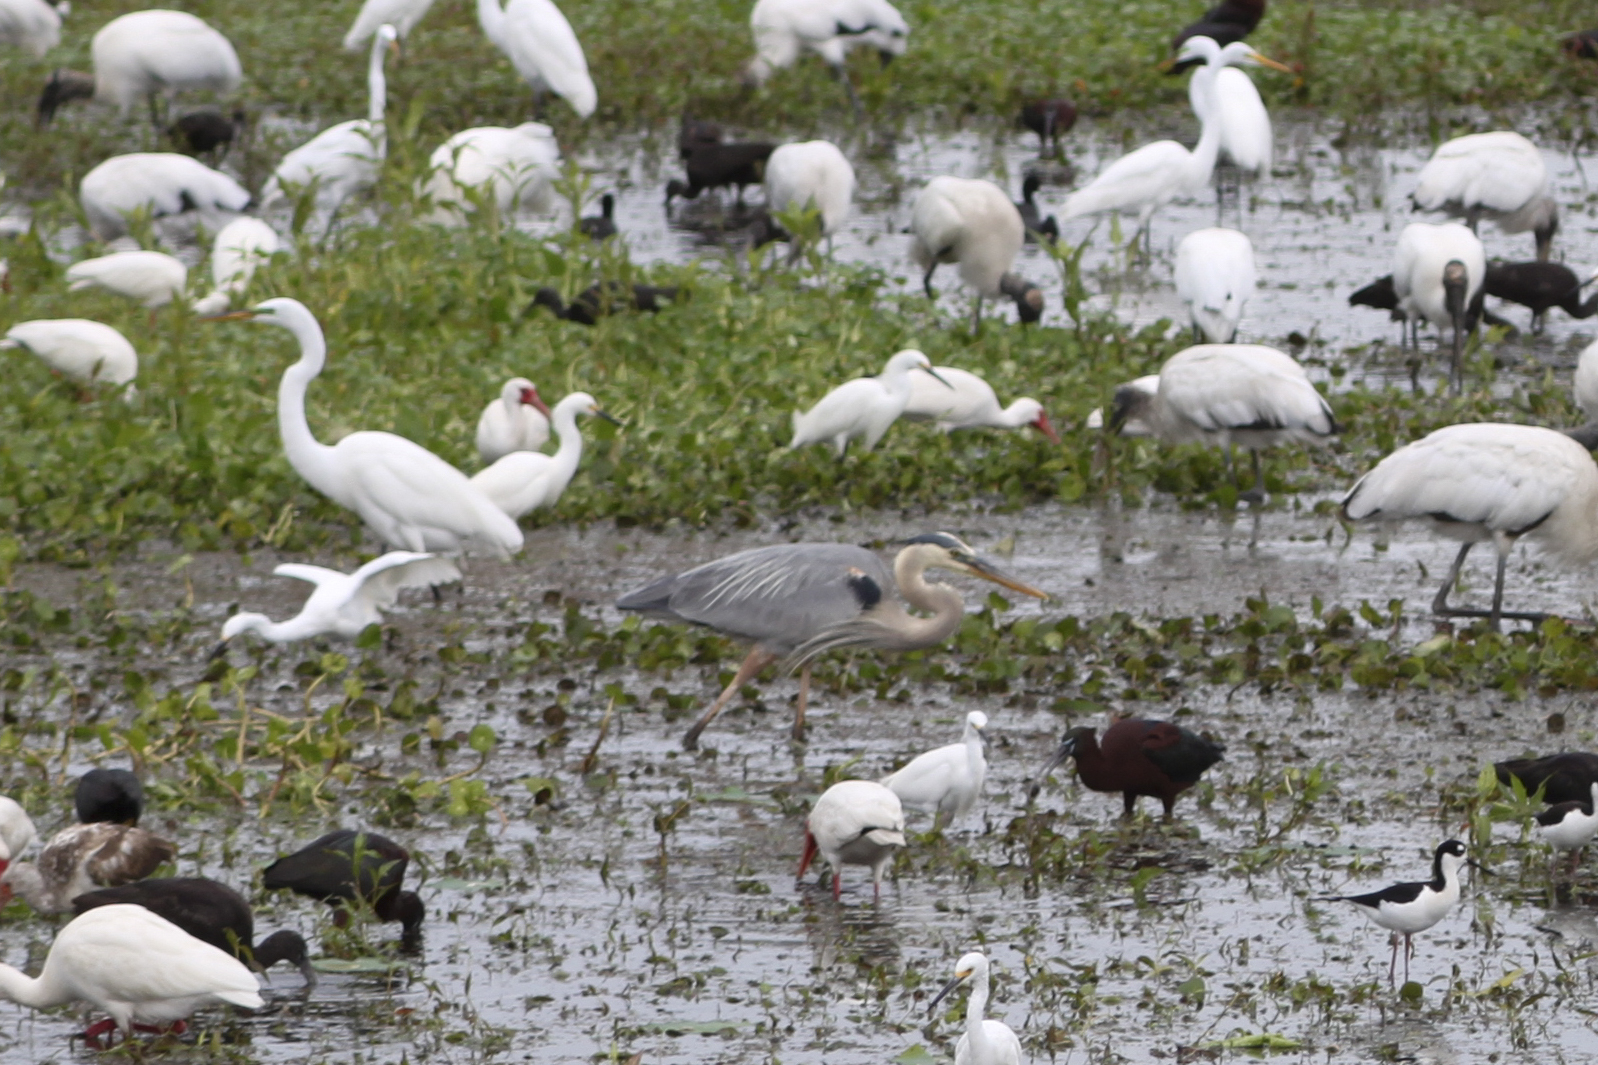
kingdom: Animalia
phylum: Chordata
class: Aves
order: Pelecaniformes
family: Ardeidae
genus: Ardea
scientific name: Ardea herodias
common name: Great blue heron
